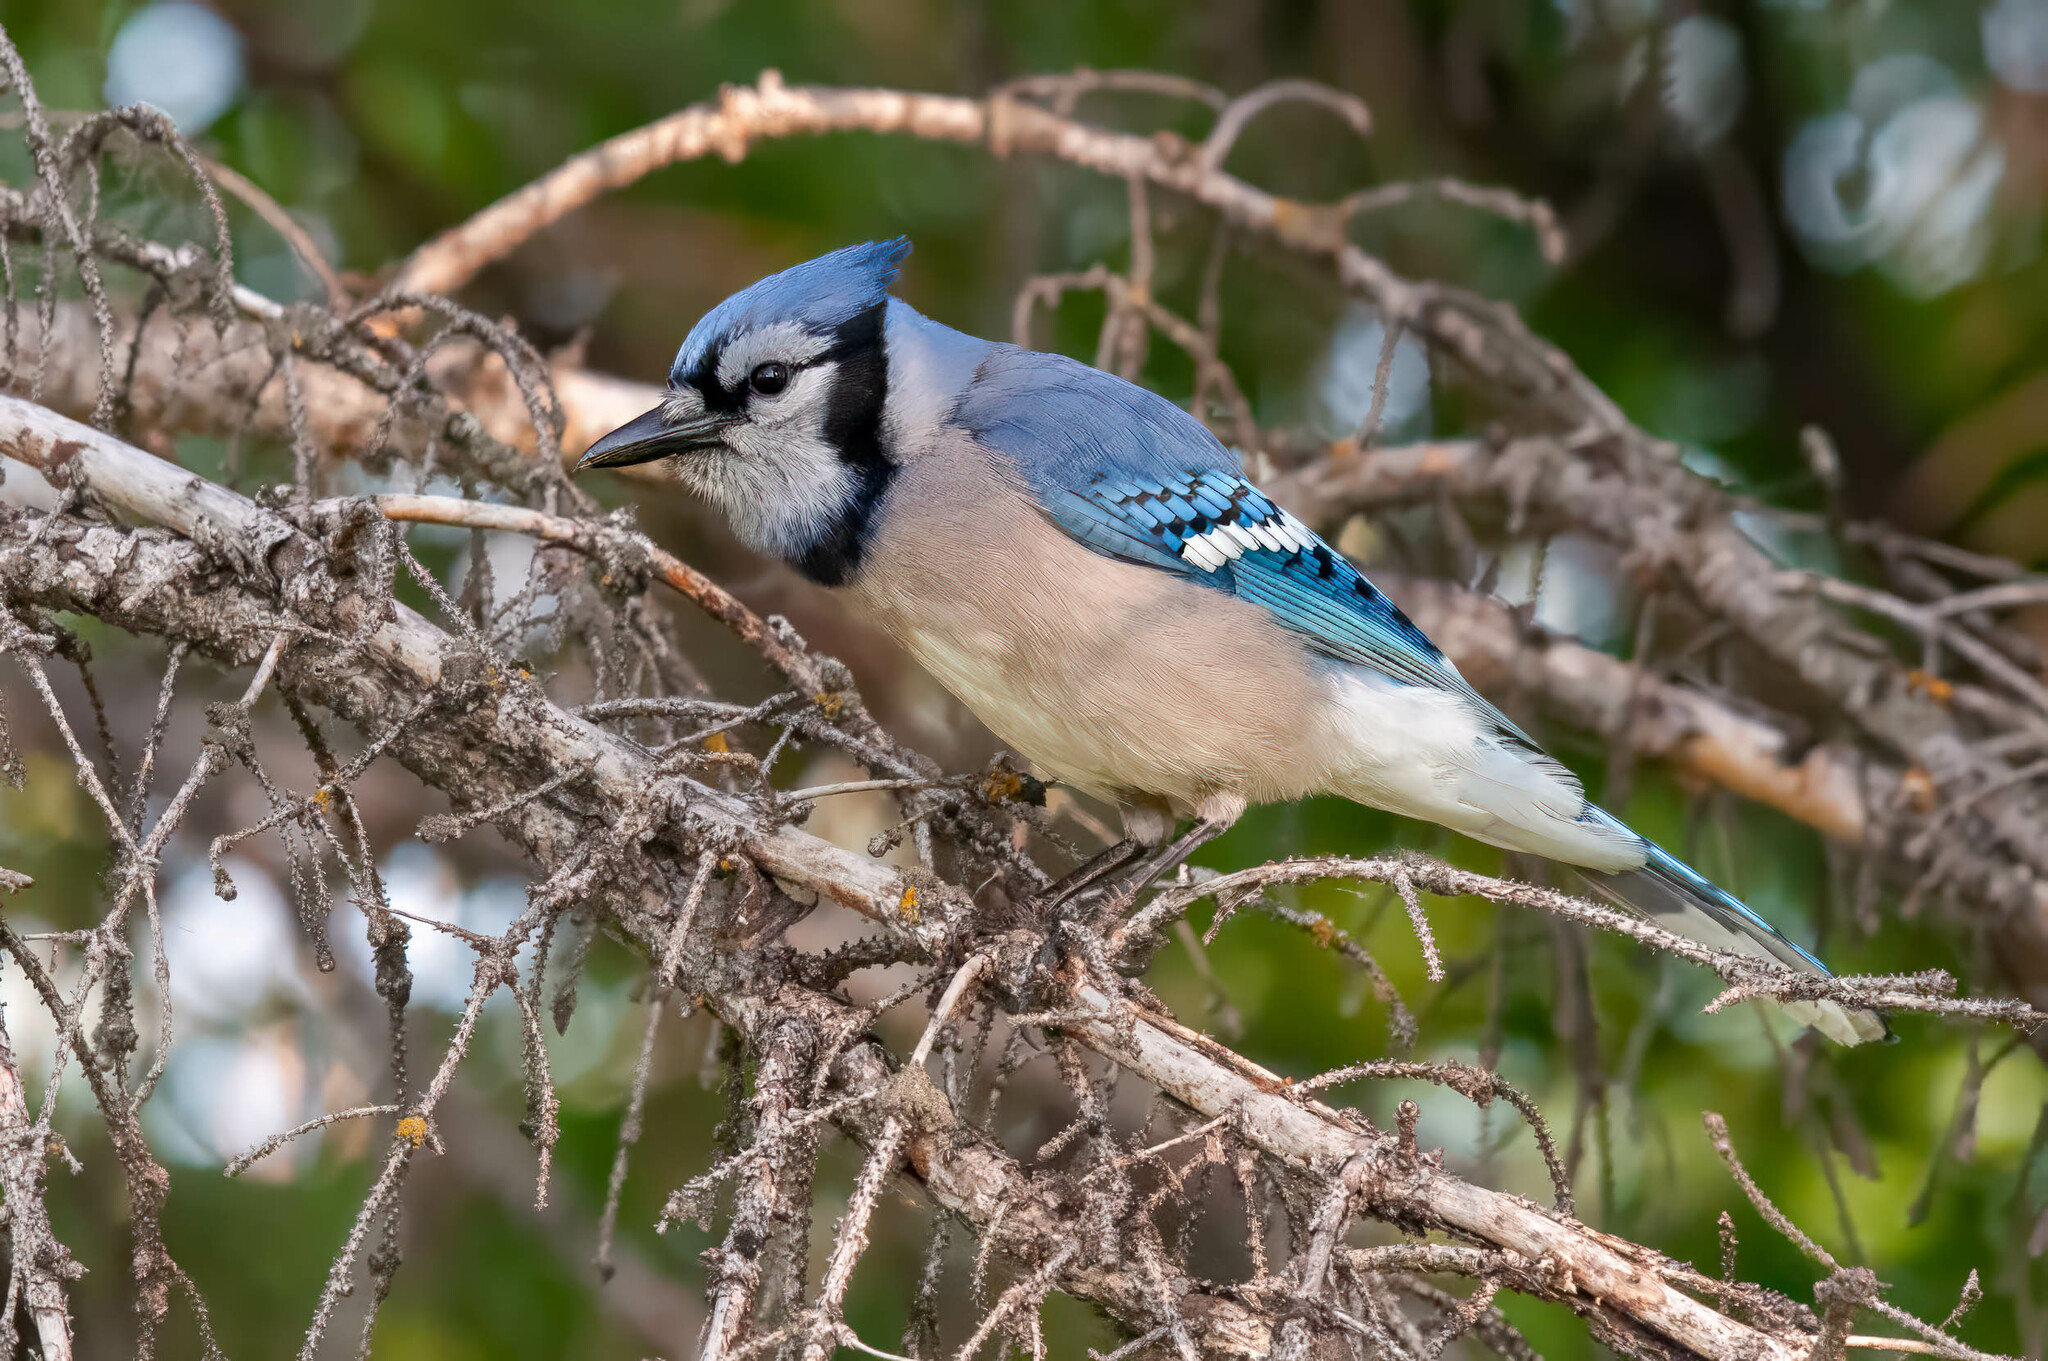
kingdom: Animalia
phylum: Chordata
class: Aves
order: Passeriformes
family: Corvidae
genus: Cyanocitta
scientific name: Cyanocitta cristata
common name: Blue jay
